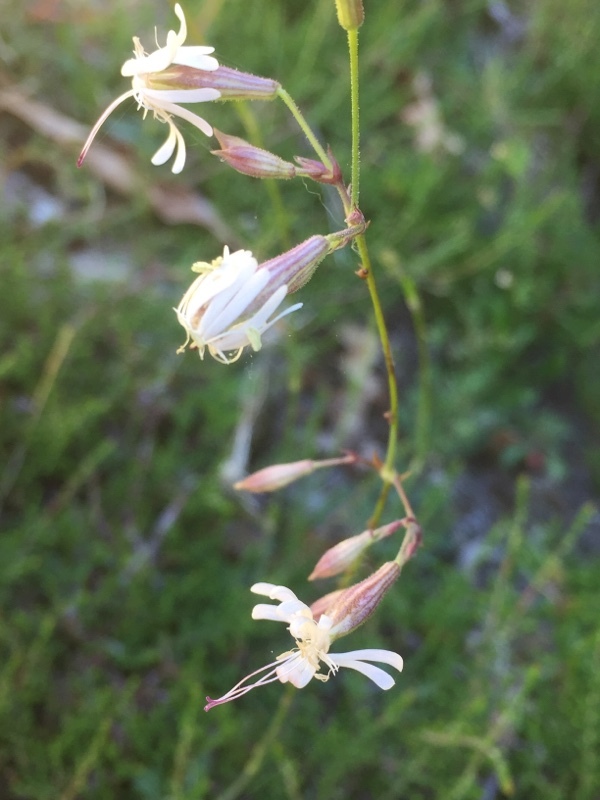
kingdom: Plantae
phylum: Tracheophyta
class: Magnoliopsida
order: Caryophyllales
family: Caryophyllaceae
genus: Silene
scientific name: Silene nutans
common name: Nottingham catchfly
